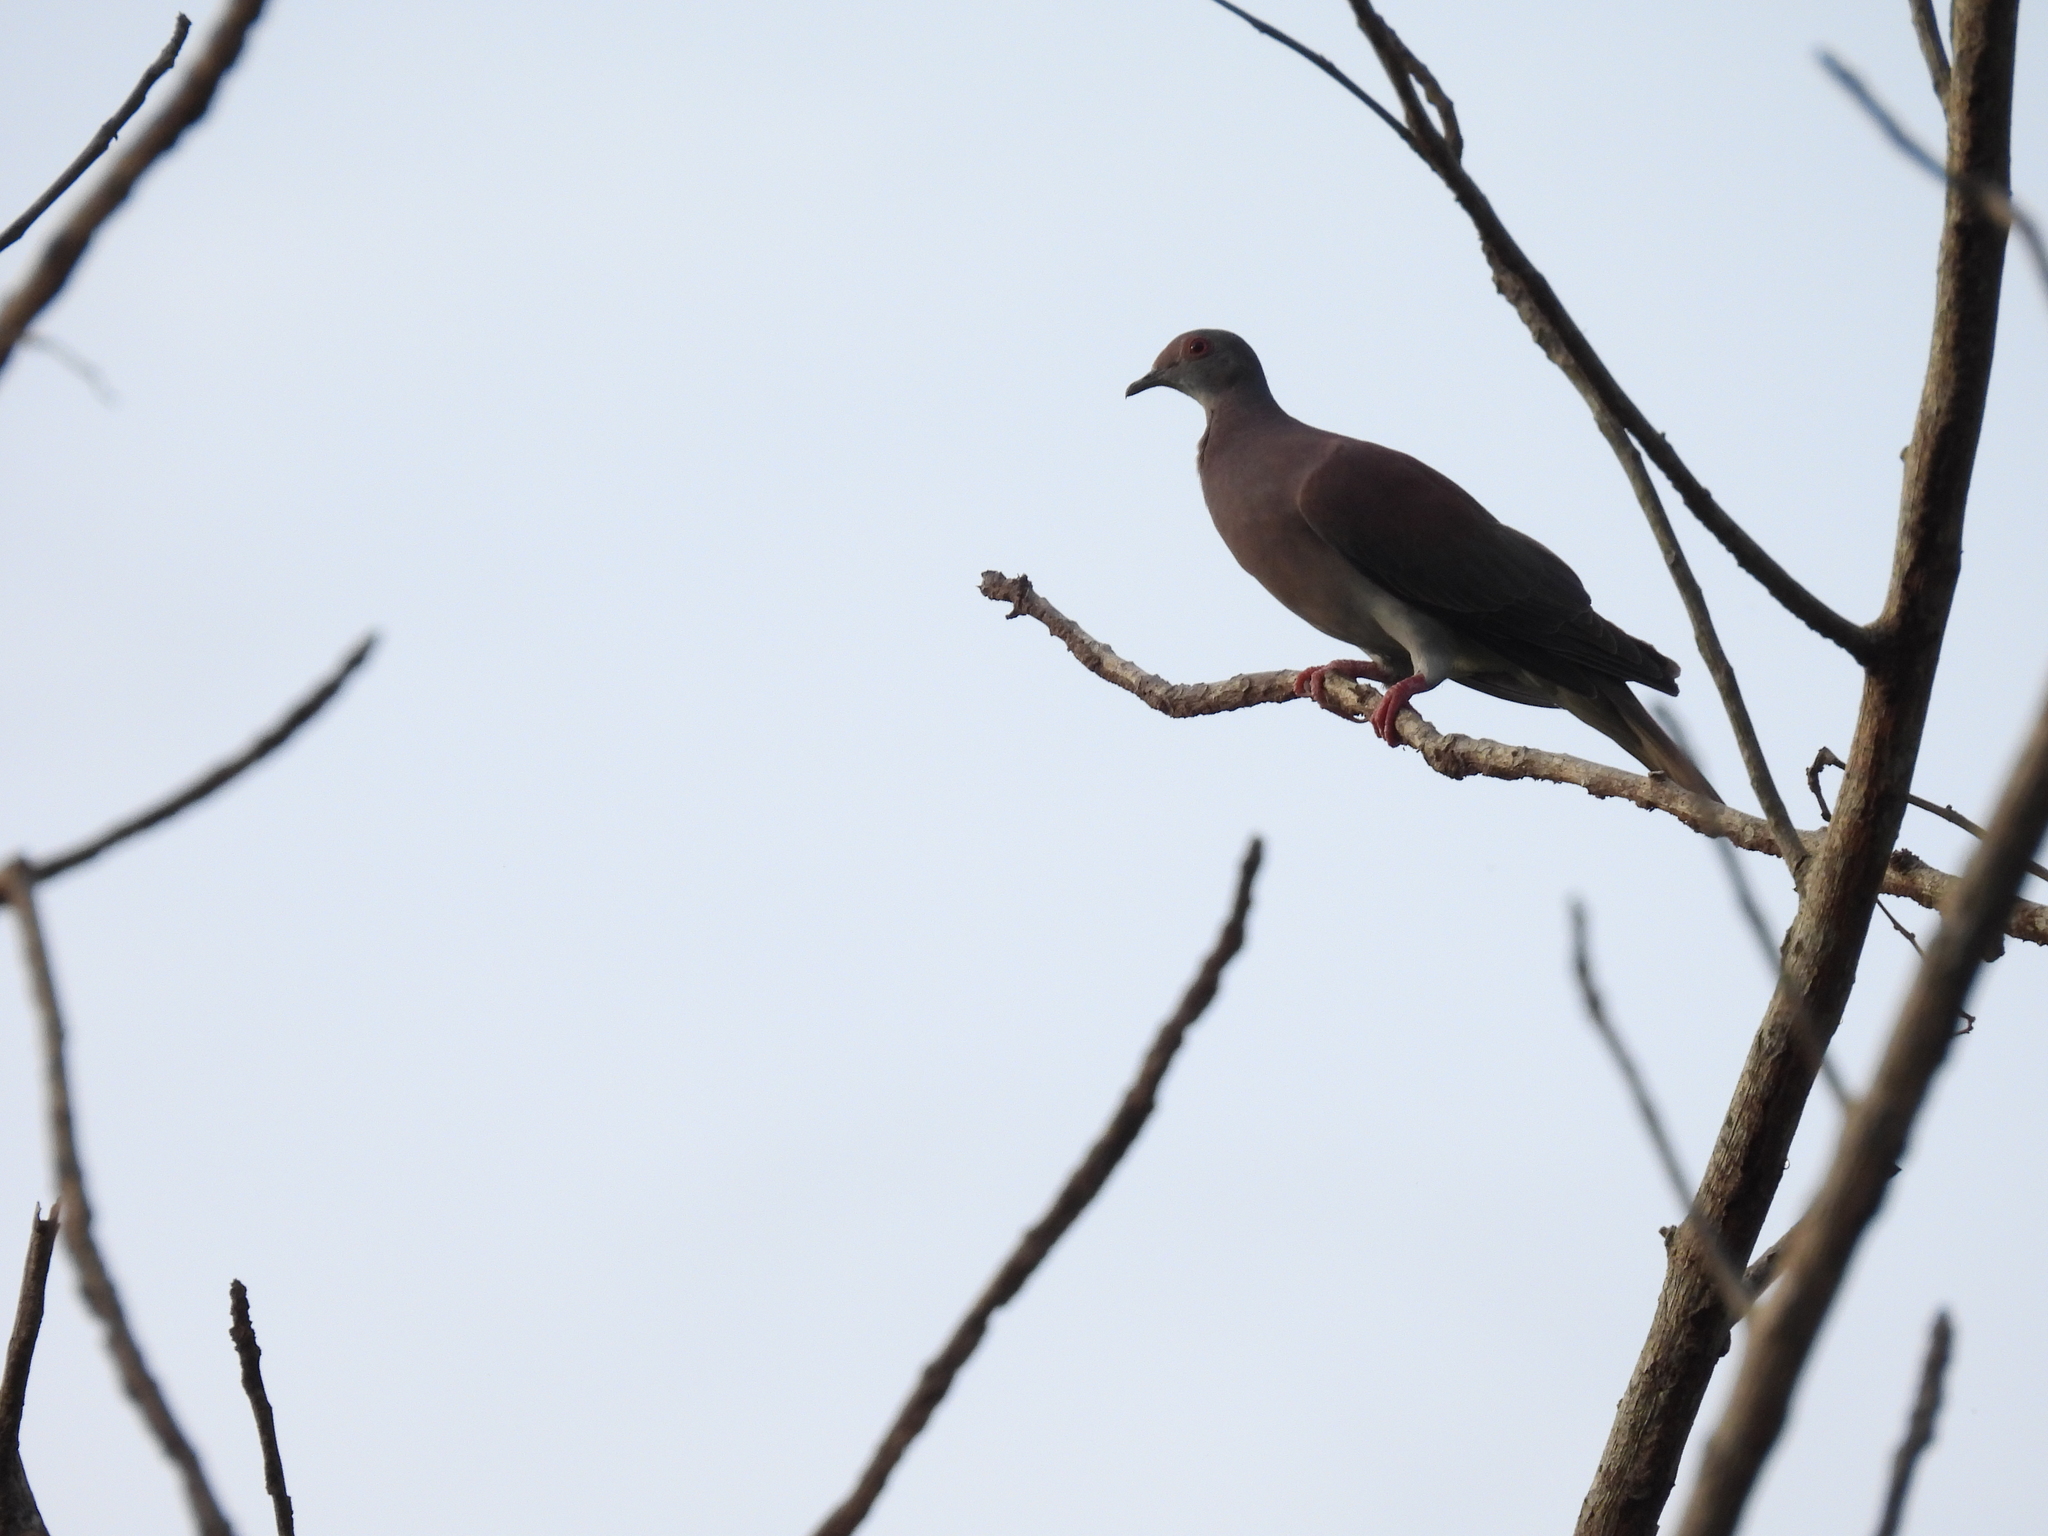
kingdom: Animalia
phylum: Chordata
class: Aves
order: Columbiformes
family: Columbidae
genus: Patagioenas
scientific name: Patagioenas cayennensis
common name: Pale-vented pigeon
